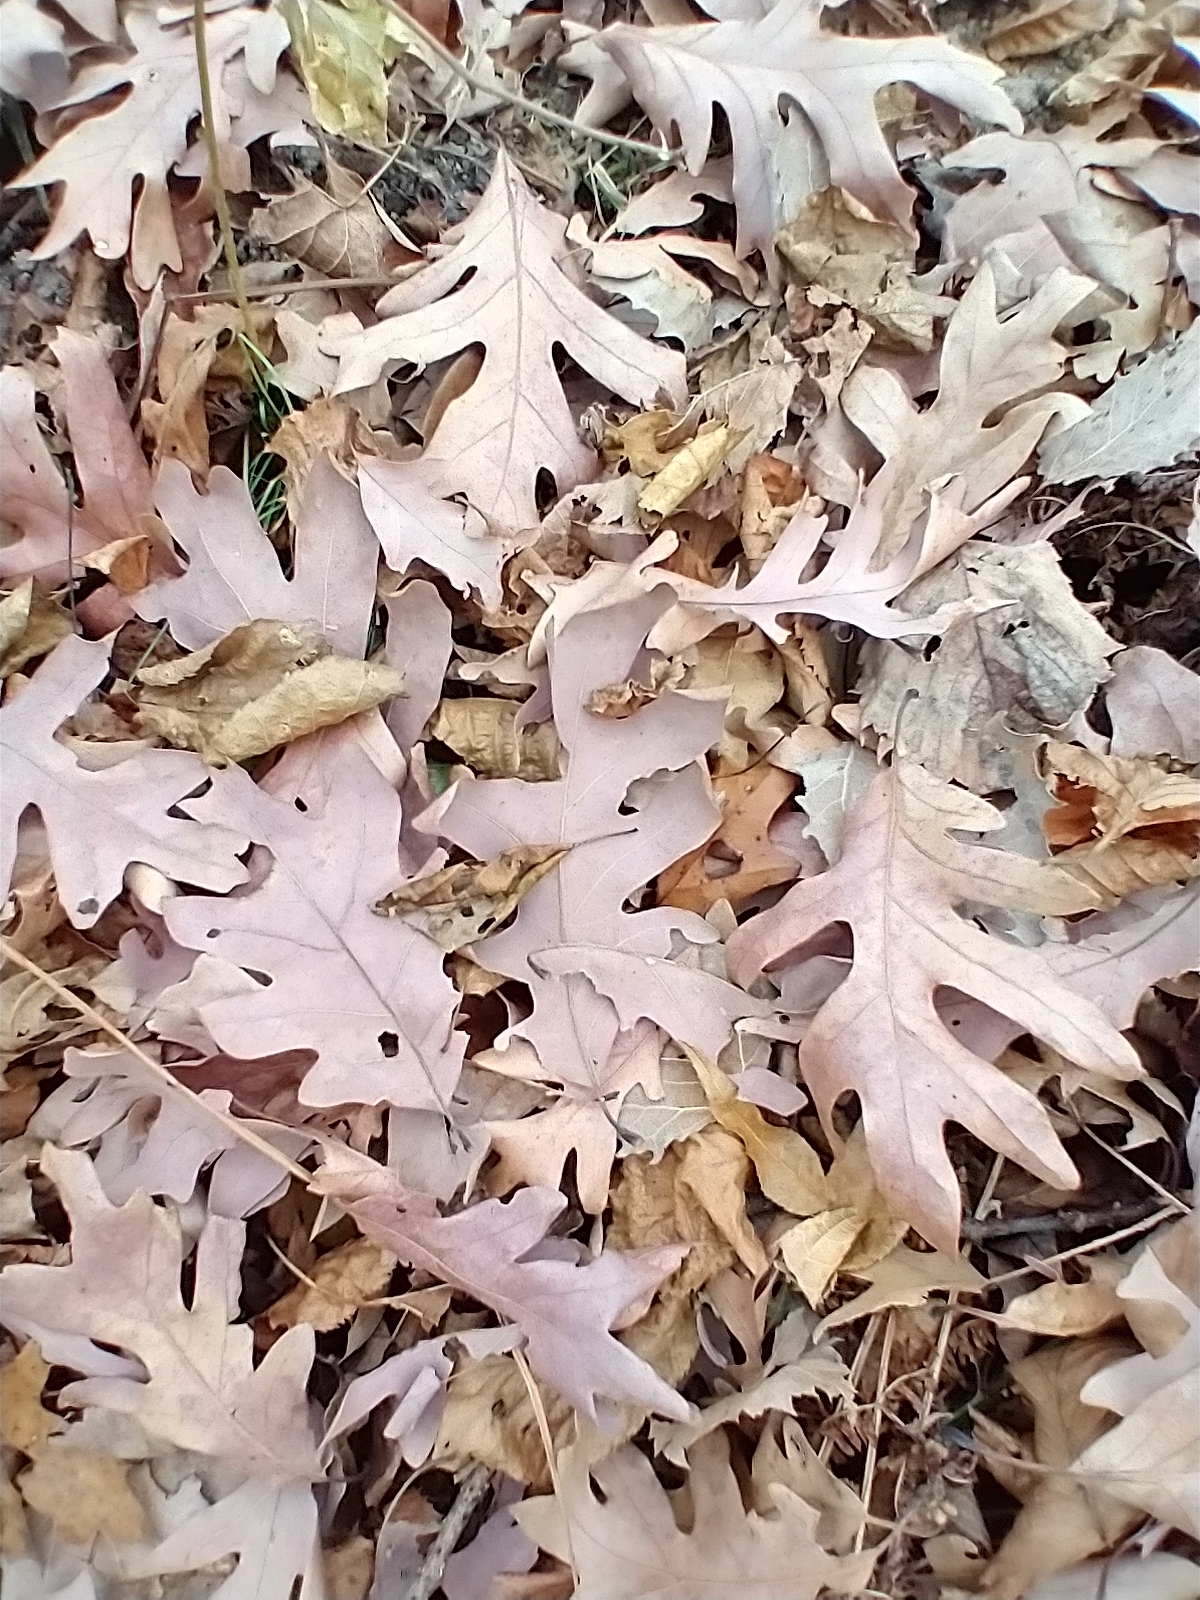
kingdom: Plantae
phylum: Tracheophyta
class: Magnoliopsida
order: Fagales
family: Fagaceae
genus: Quercus
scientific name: Quercus alba
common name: White oak
